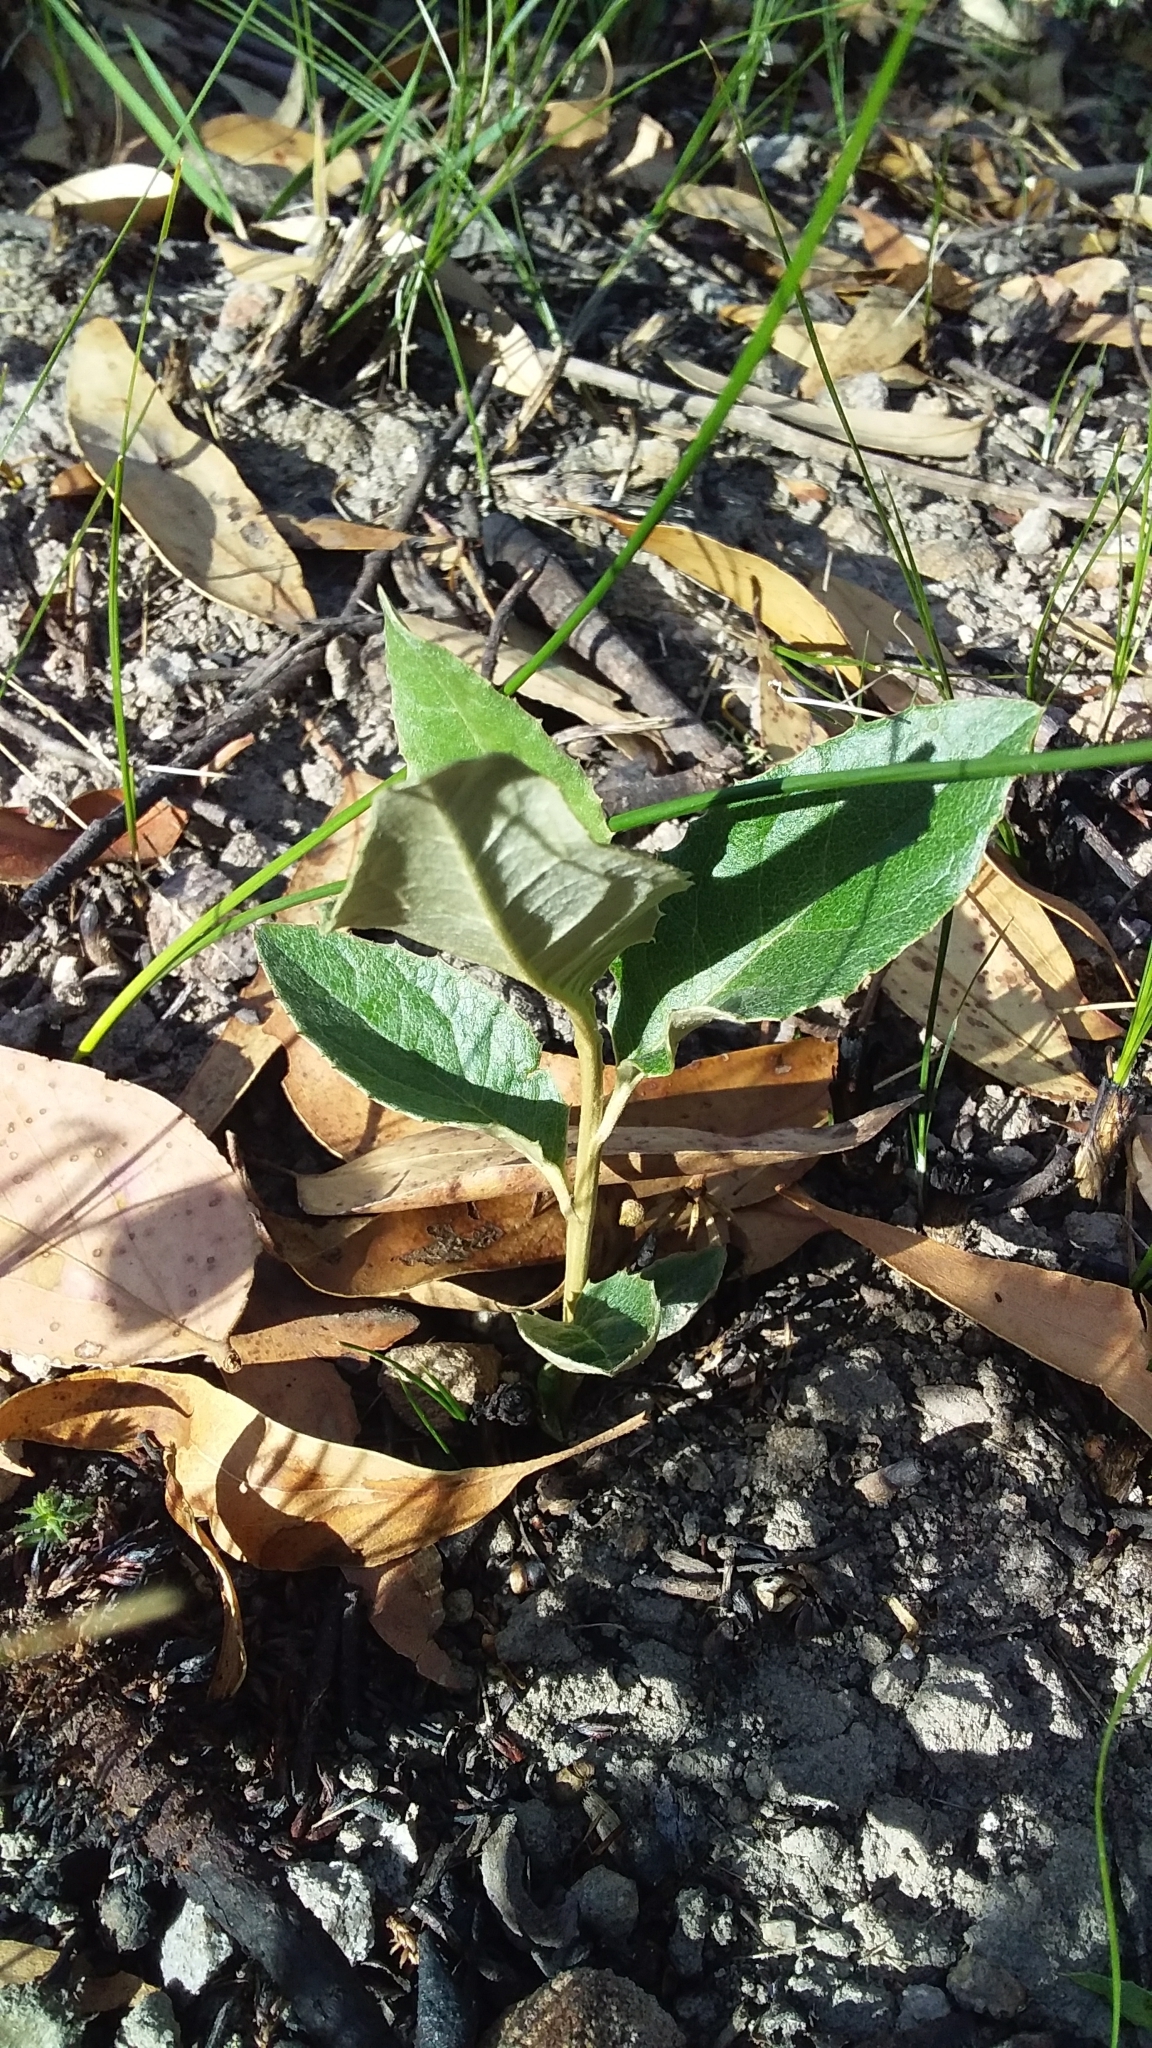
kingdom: Plantae
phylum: Tracheophyta
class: Magnoliopsida
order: Asterales
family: Asteraceae
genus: Olearia
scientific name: Olearia grandiflora
